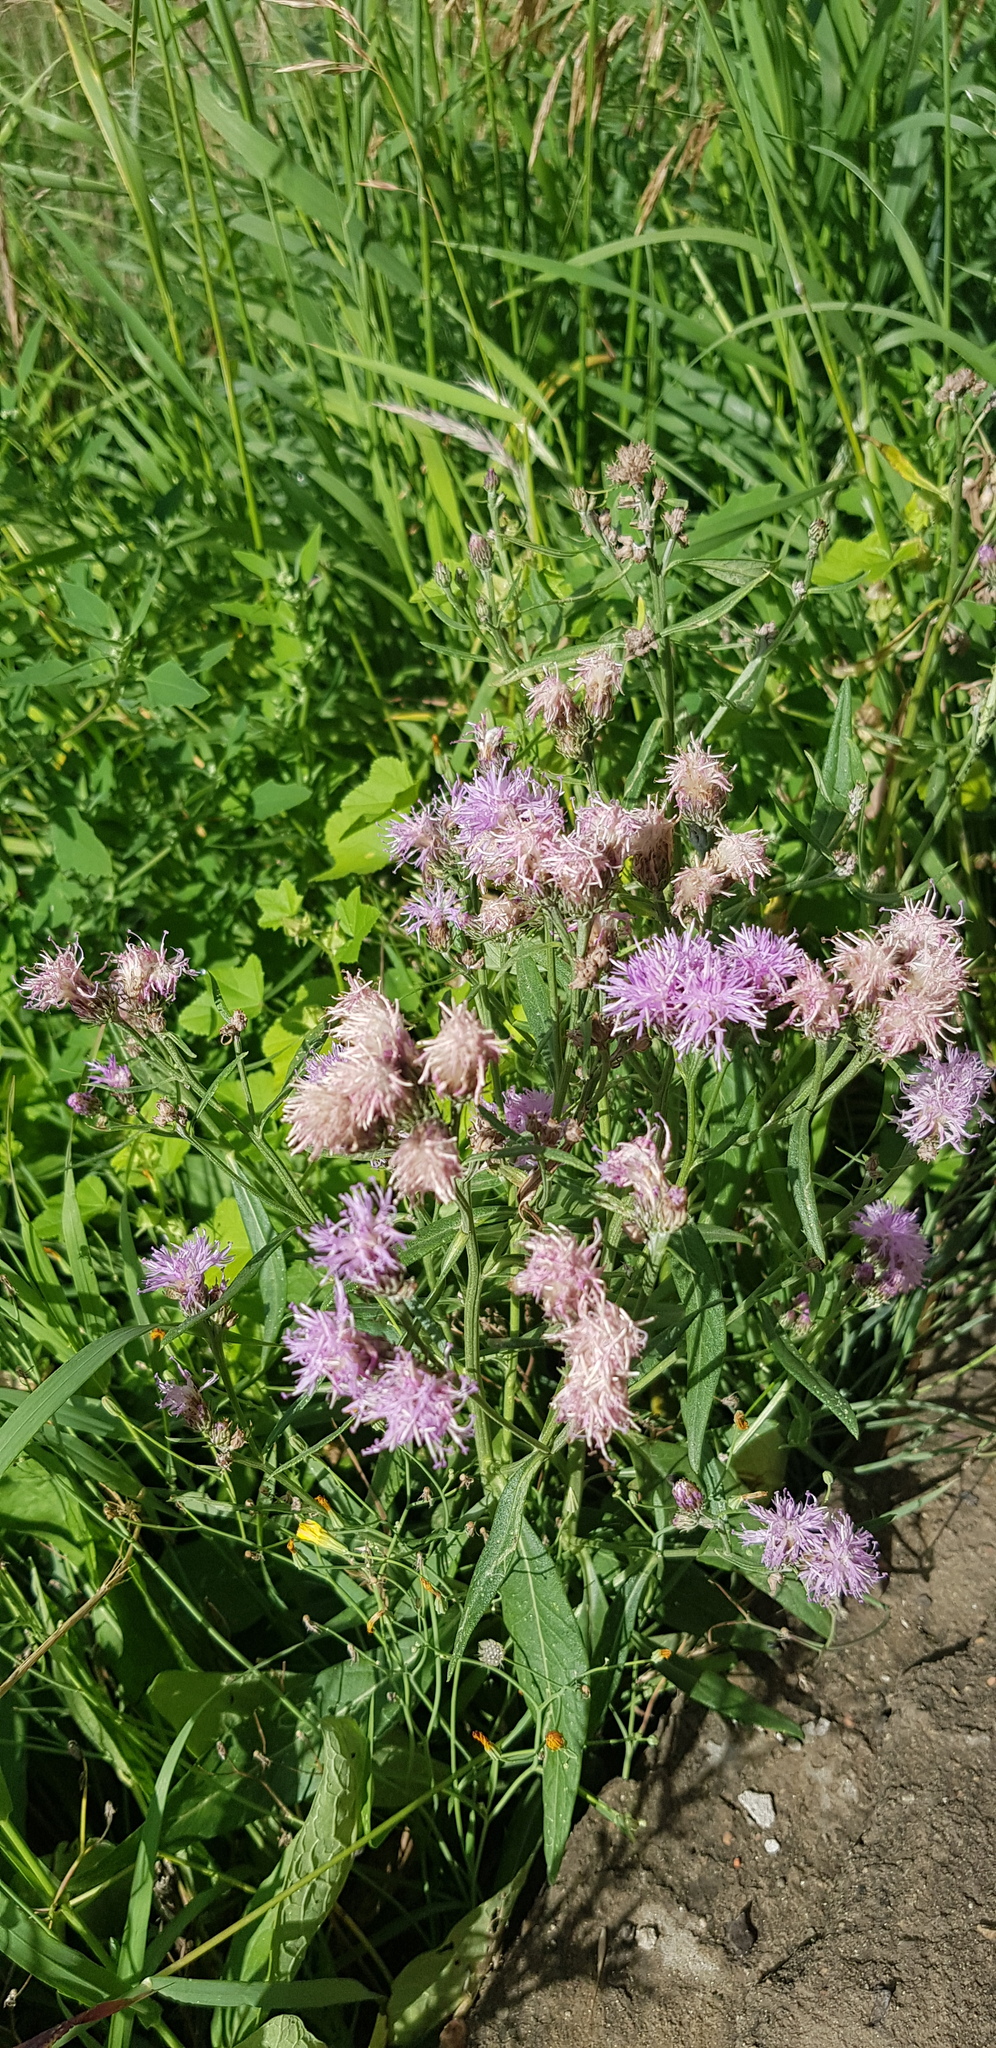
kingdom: Plantae
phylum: Tracheophyta
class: Magnoliopsida
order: Asterales
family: Asteraceae
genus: Saussurea
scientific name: Saussurea salicifolia
